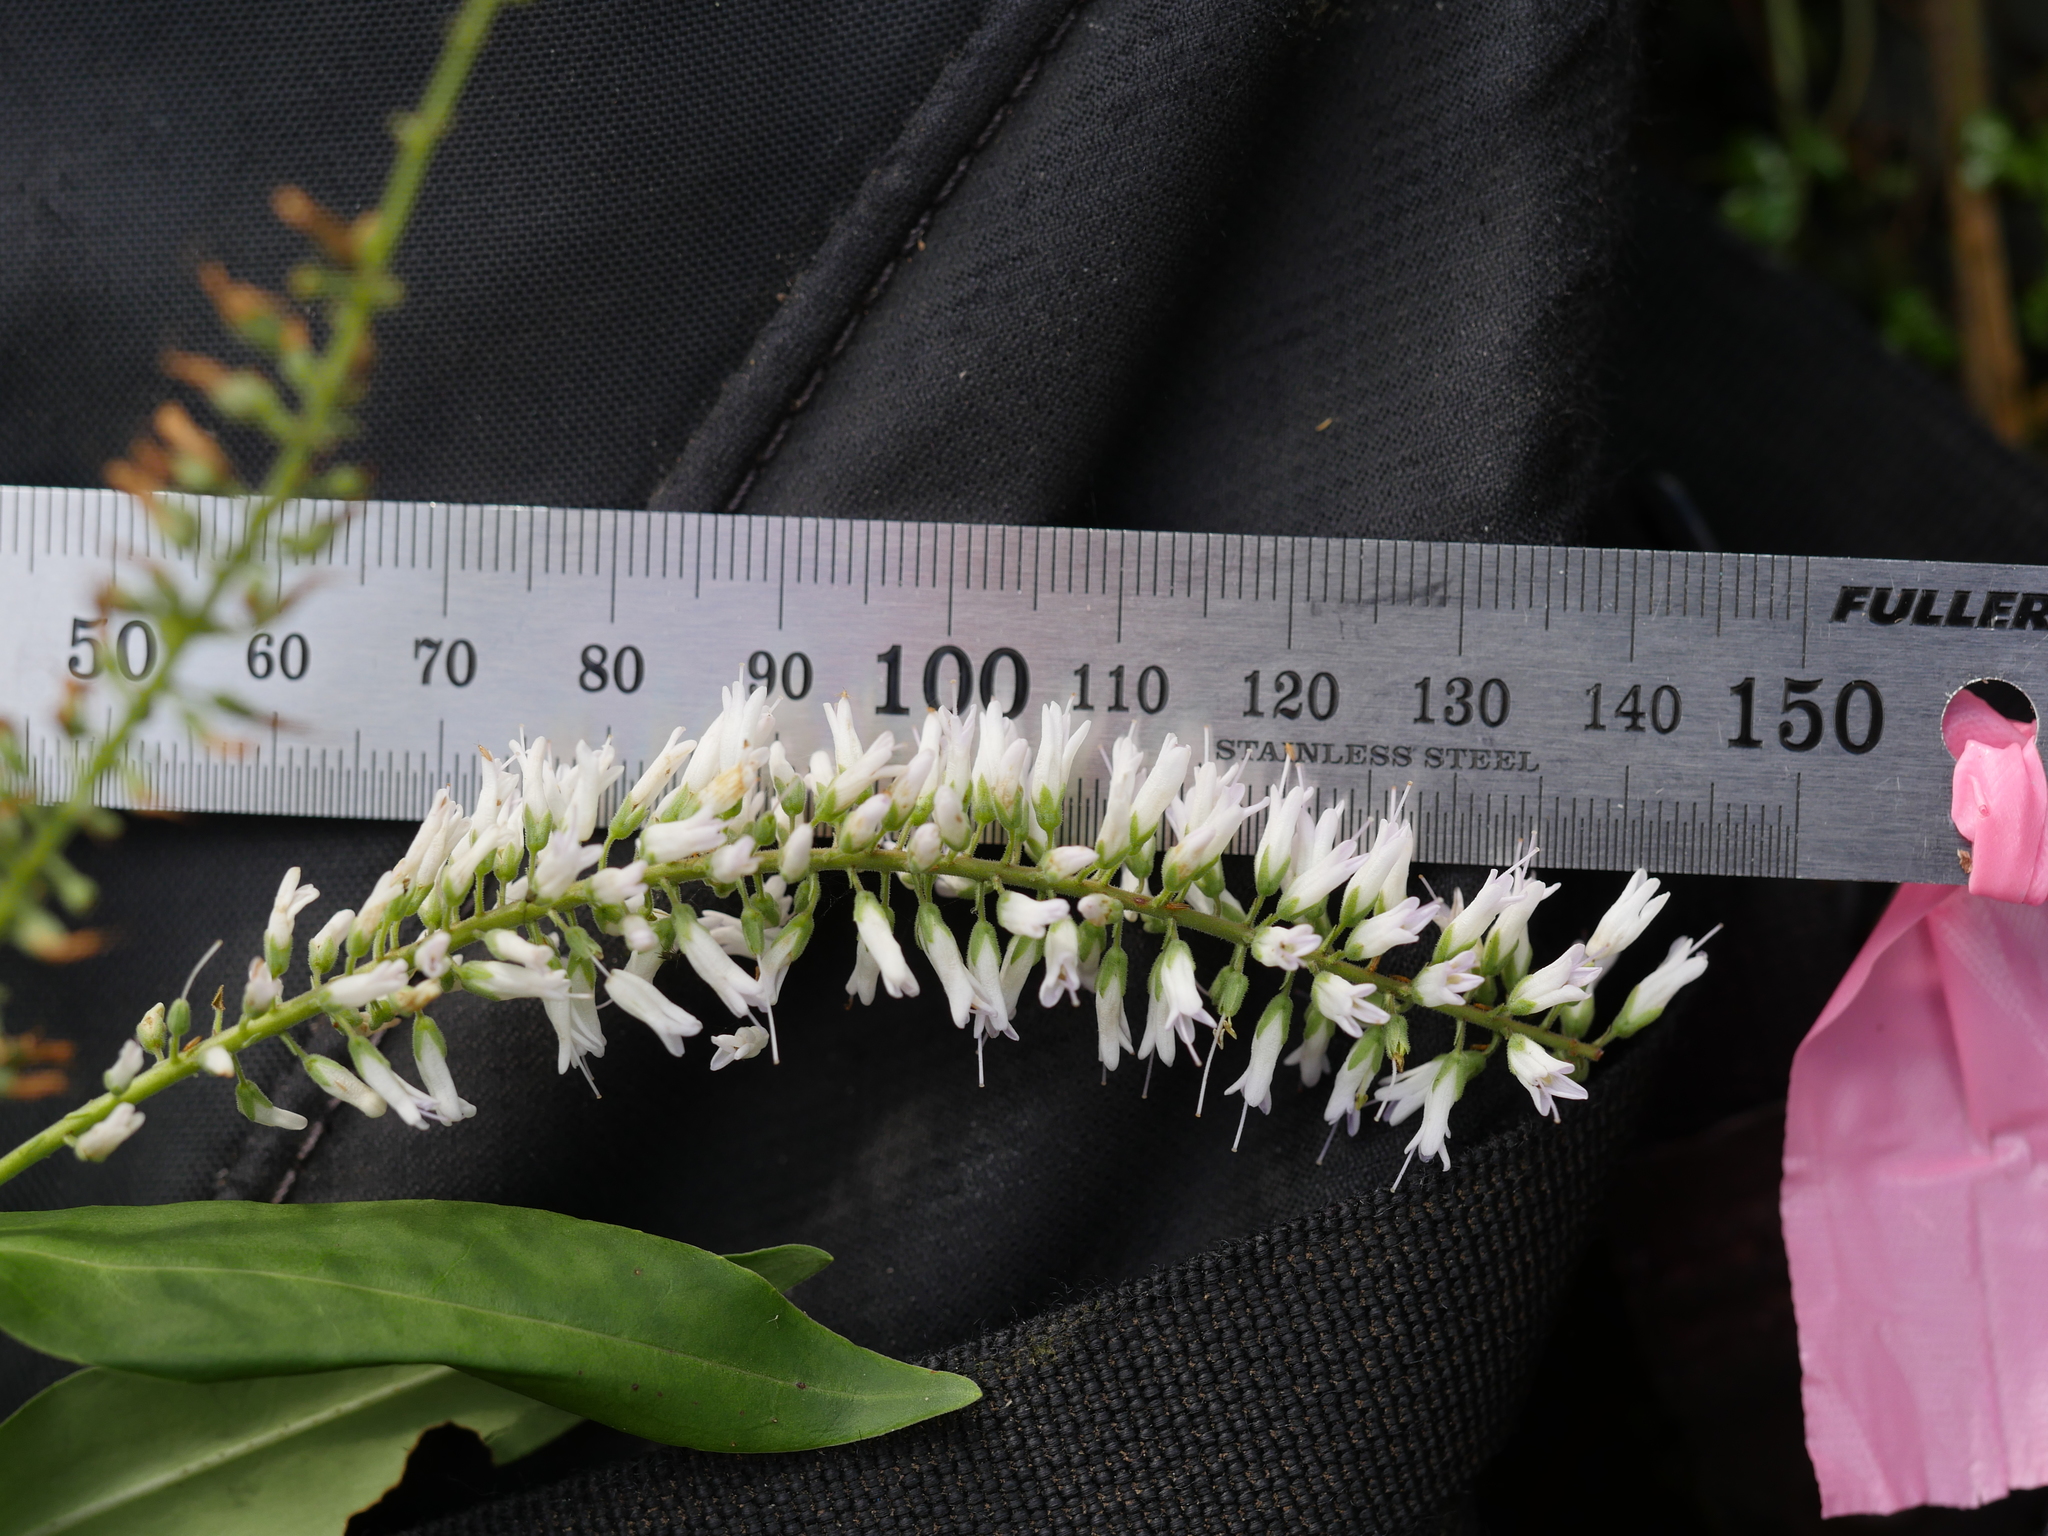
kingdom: Plantae
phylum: Tracheophyta
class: Magnoliopsida
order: Lamiales
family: Plantaginaceae
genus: Veronica
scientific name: Veronica stricta
